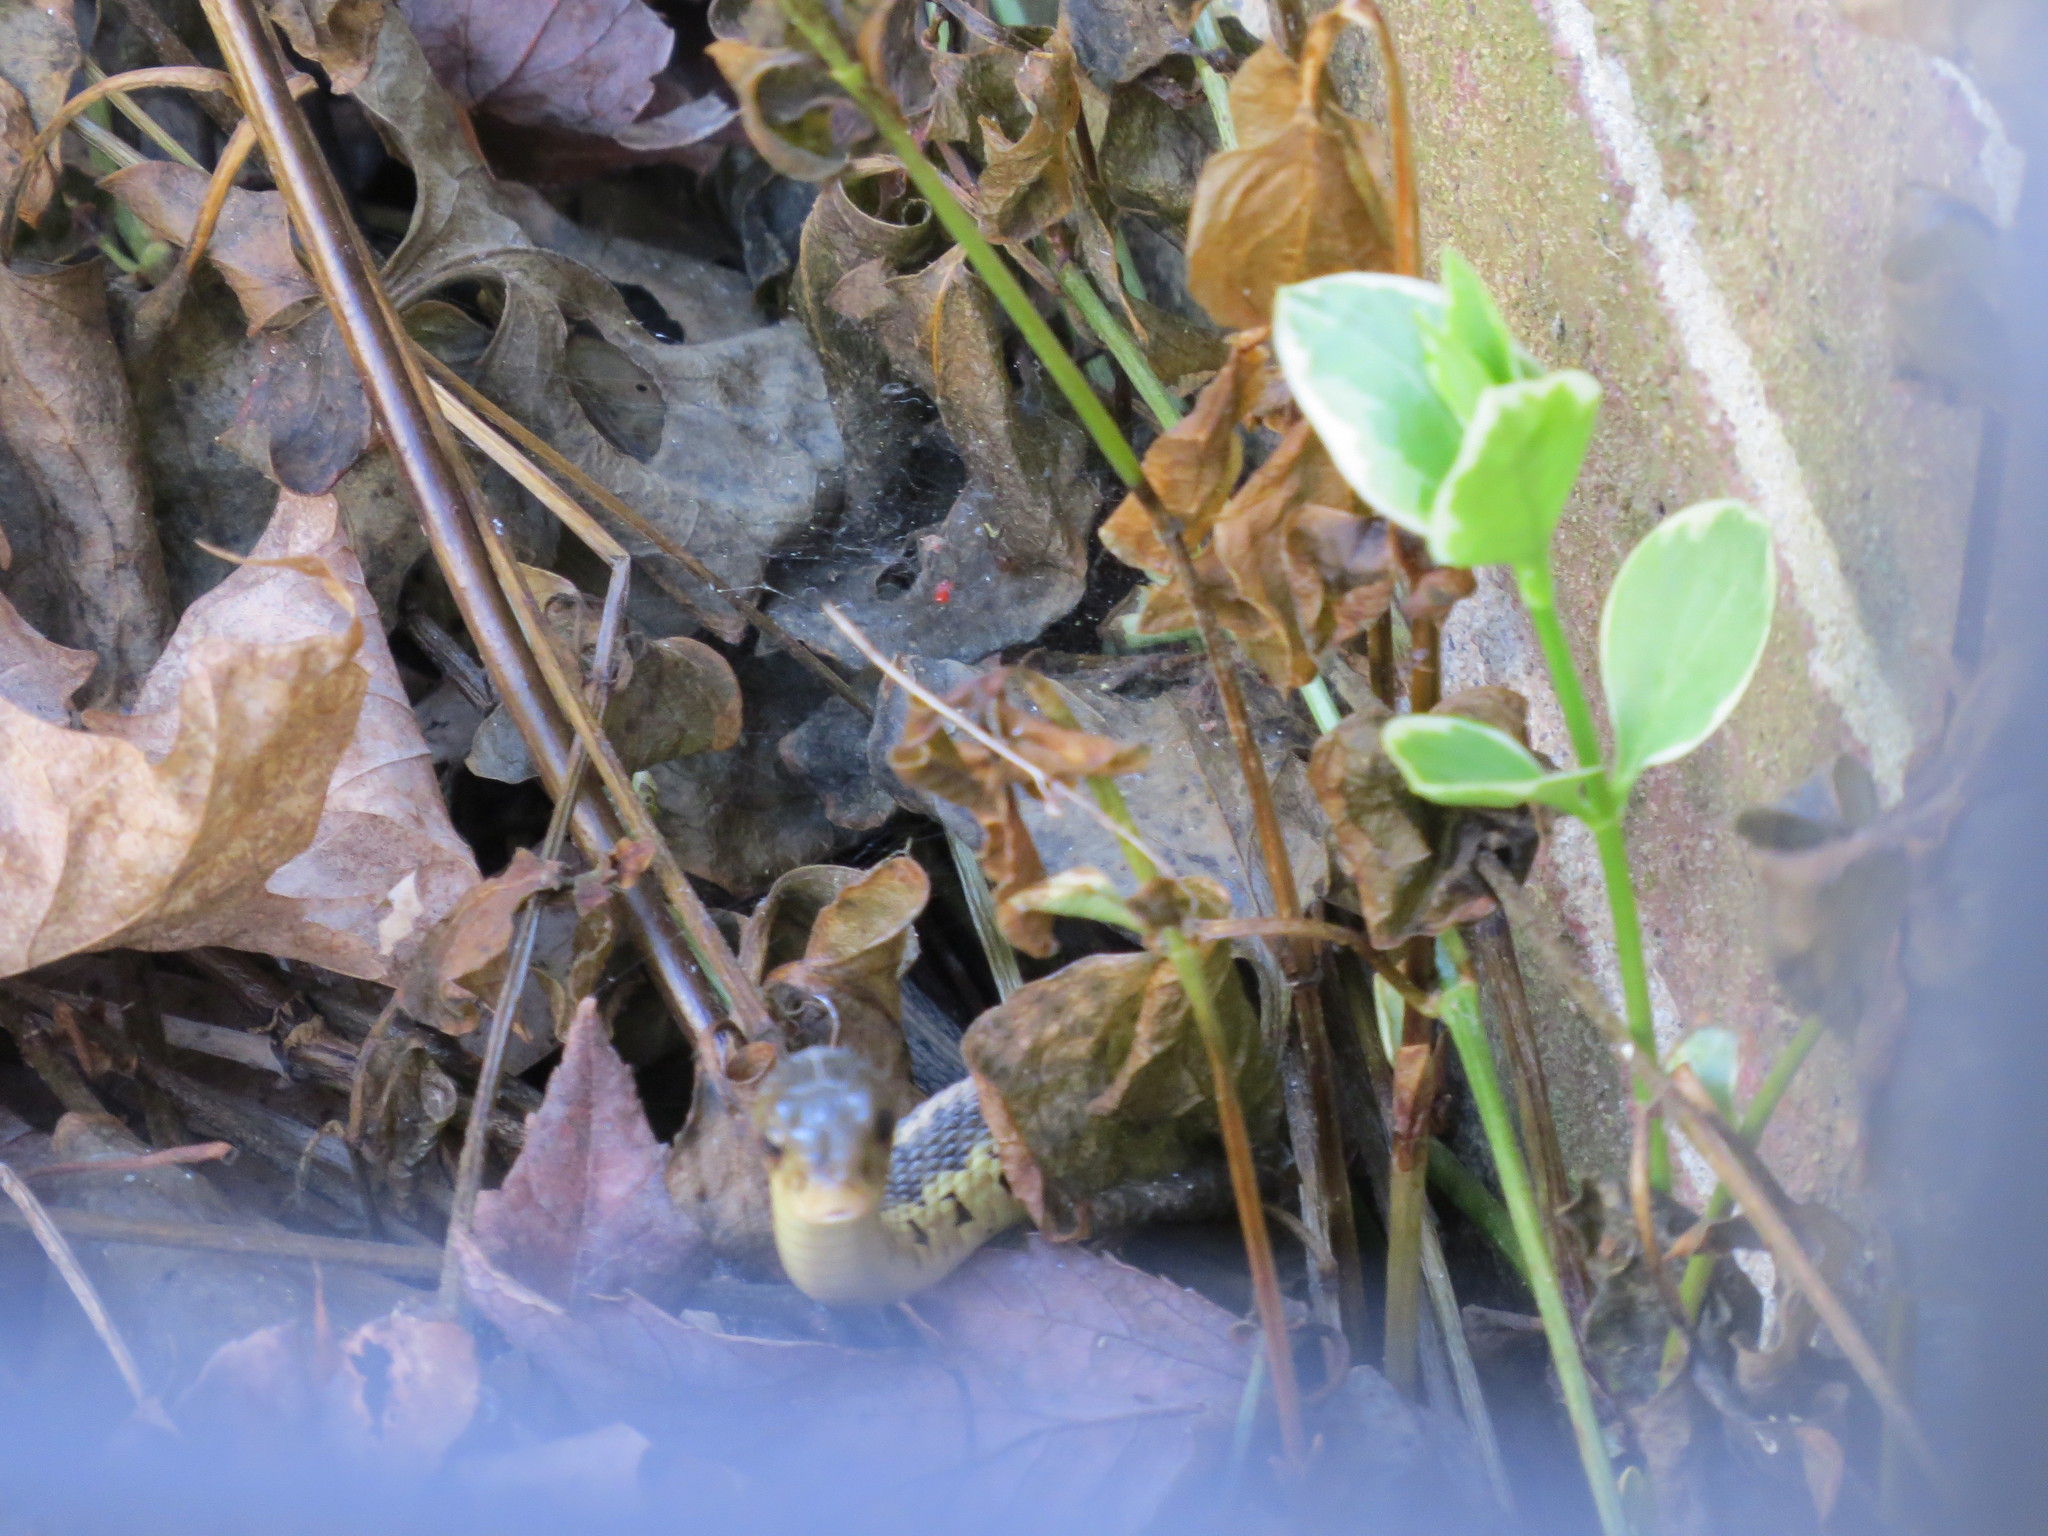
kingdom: Animalia
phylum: Chordata
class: Squamata
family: Colubridae
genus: Thamnophis
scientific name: Thamnophis sirtalis
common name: Common garter snake
